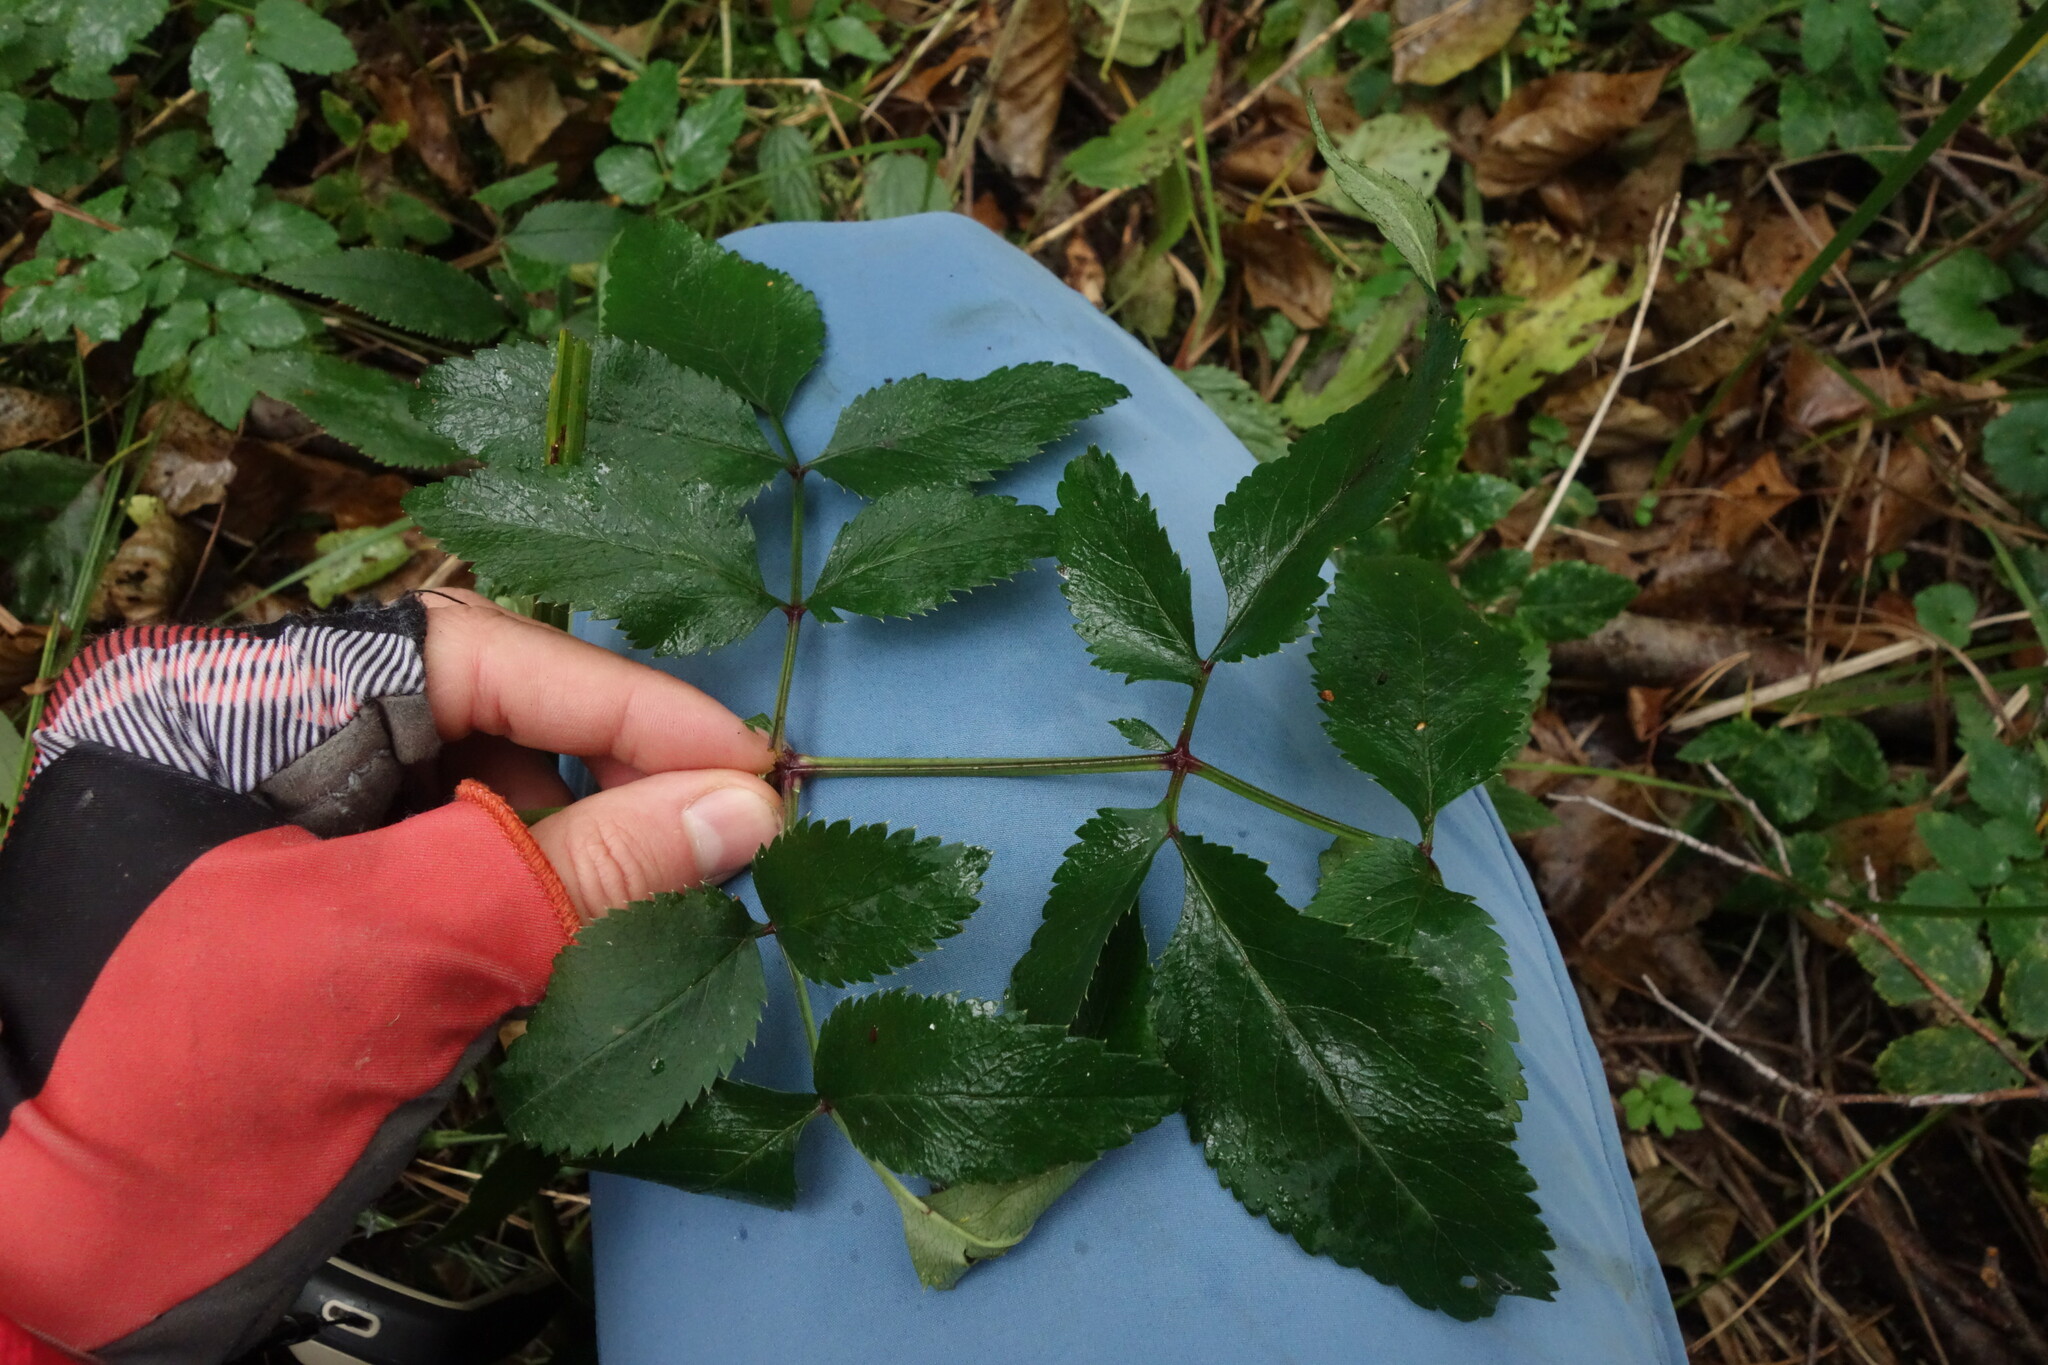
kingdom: Plantae
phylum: Tracheophyta
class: Magnoliopsida
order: Apiales
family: Apiaceae
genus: Angelica
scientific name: Angelica sylvestris
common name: Wild angelica
